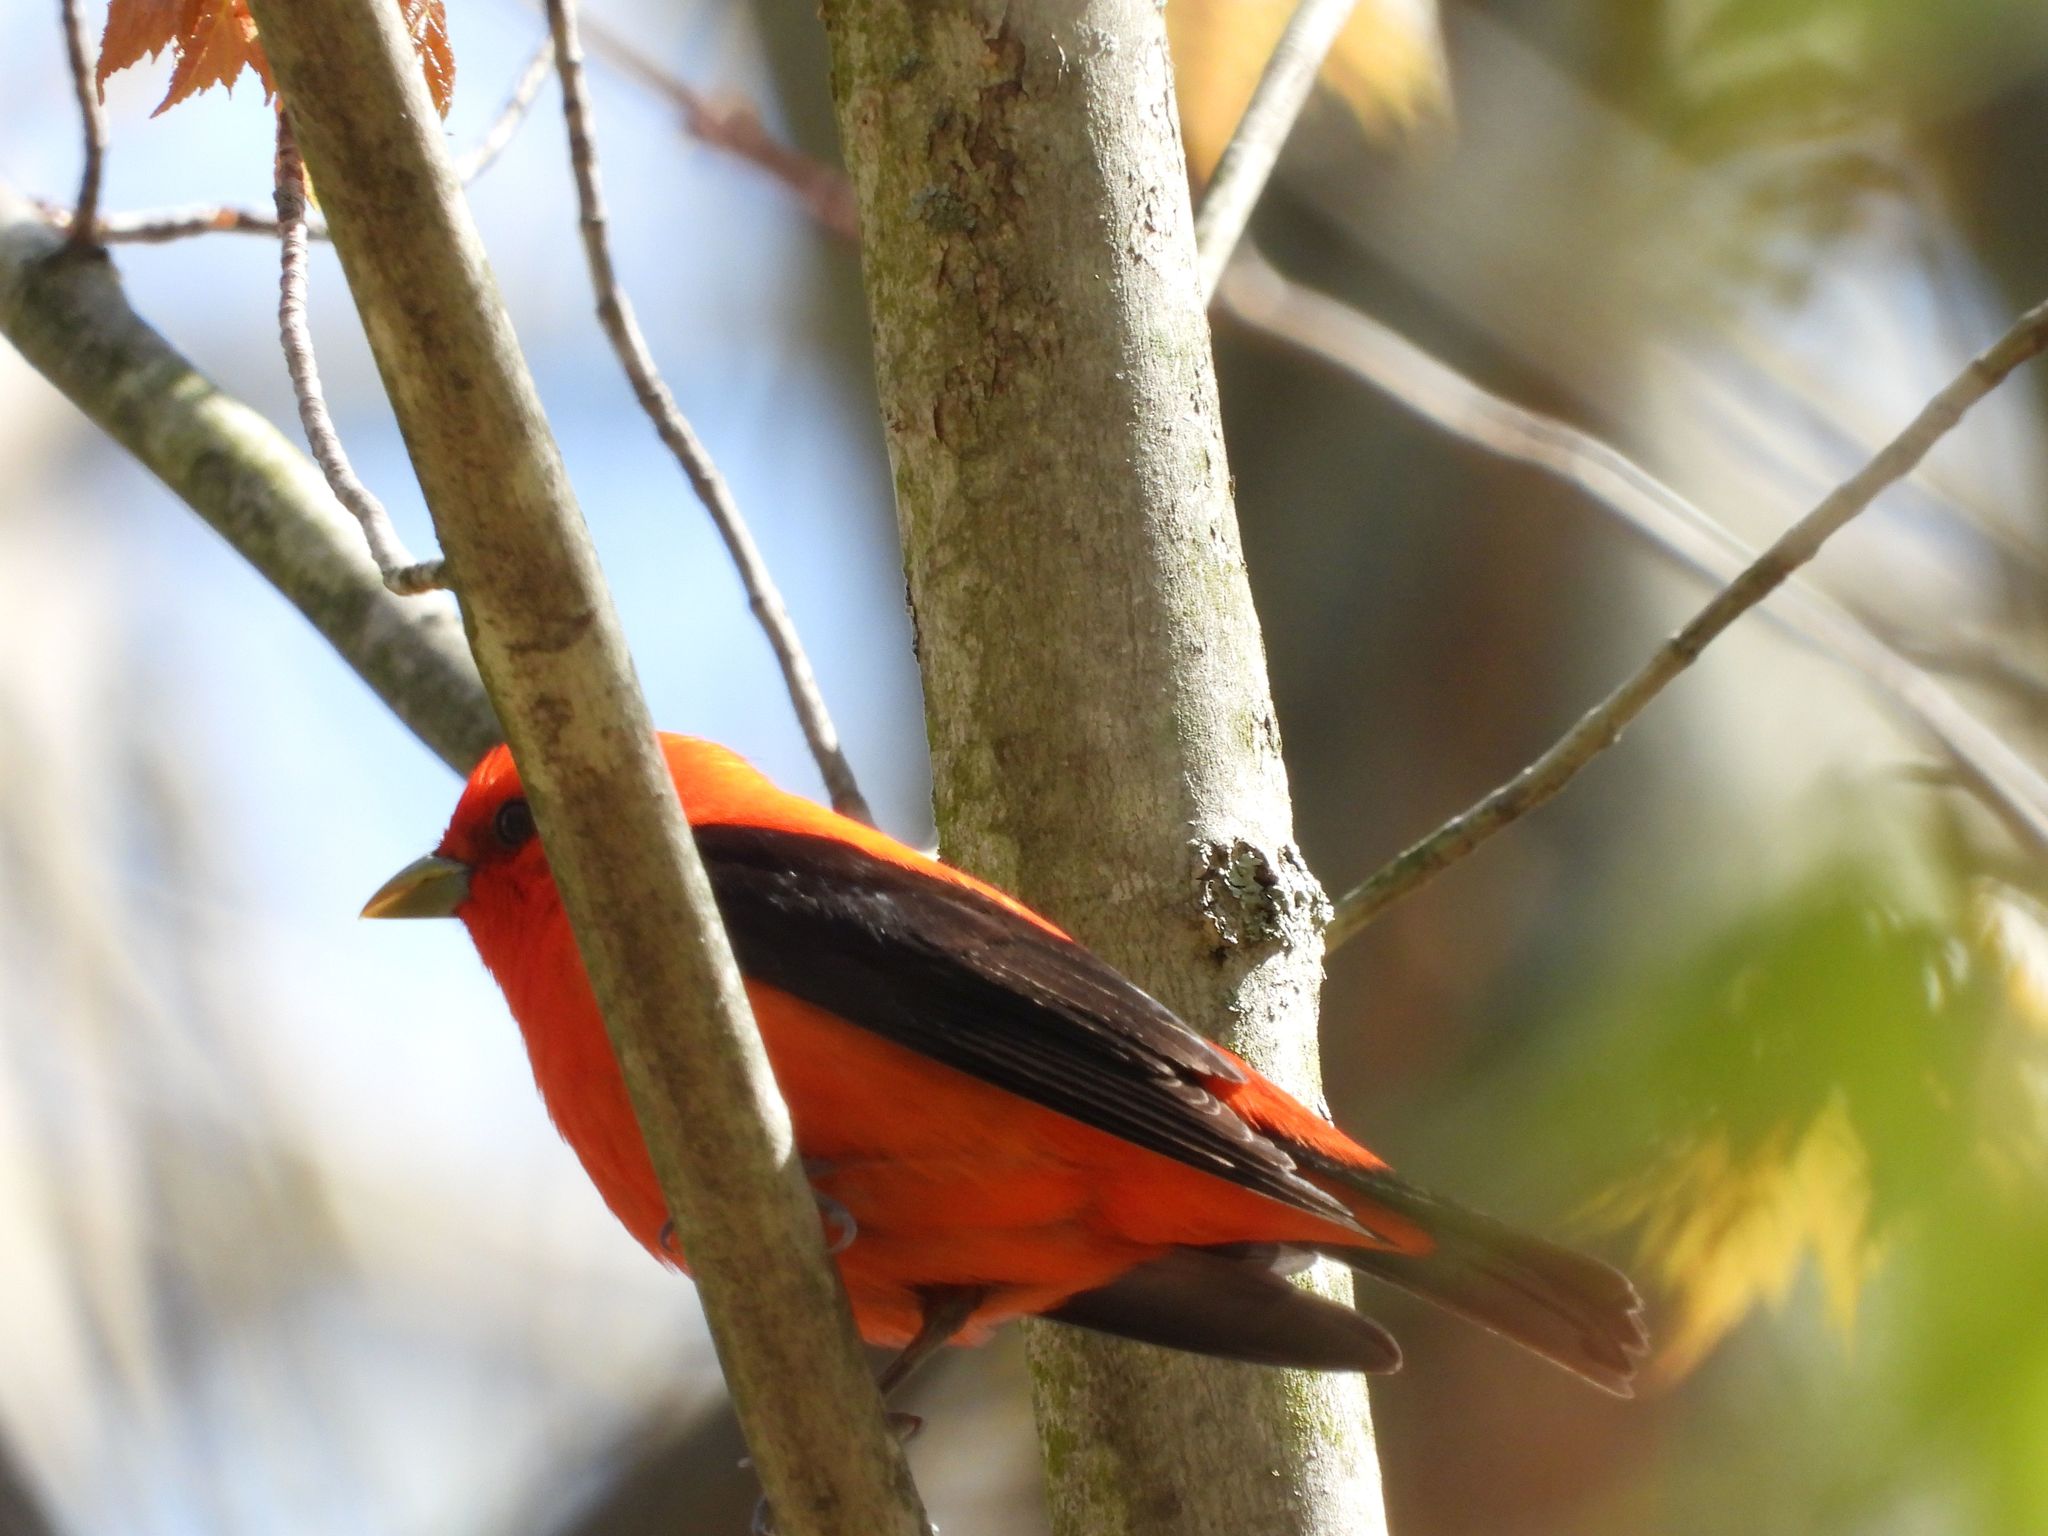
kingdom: Animalia
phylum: Chordata
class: Aves
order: Passeriformes
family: Cardinalidae
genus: Piranga
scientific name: Piranga olivacea
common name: Scarlet tanager
